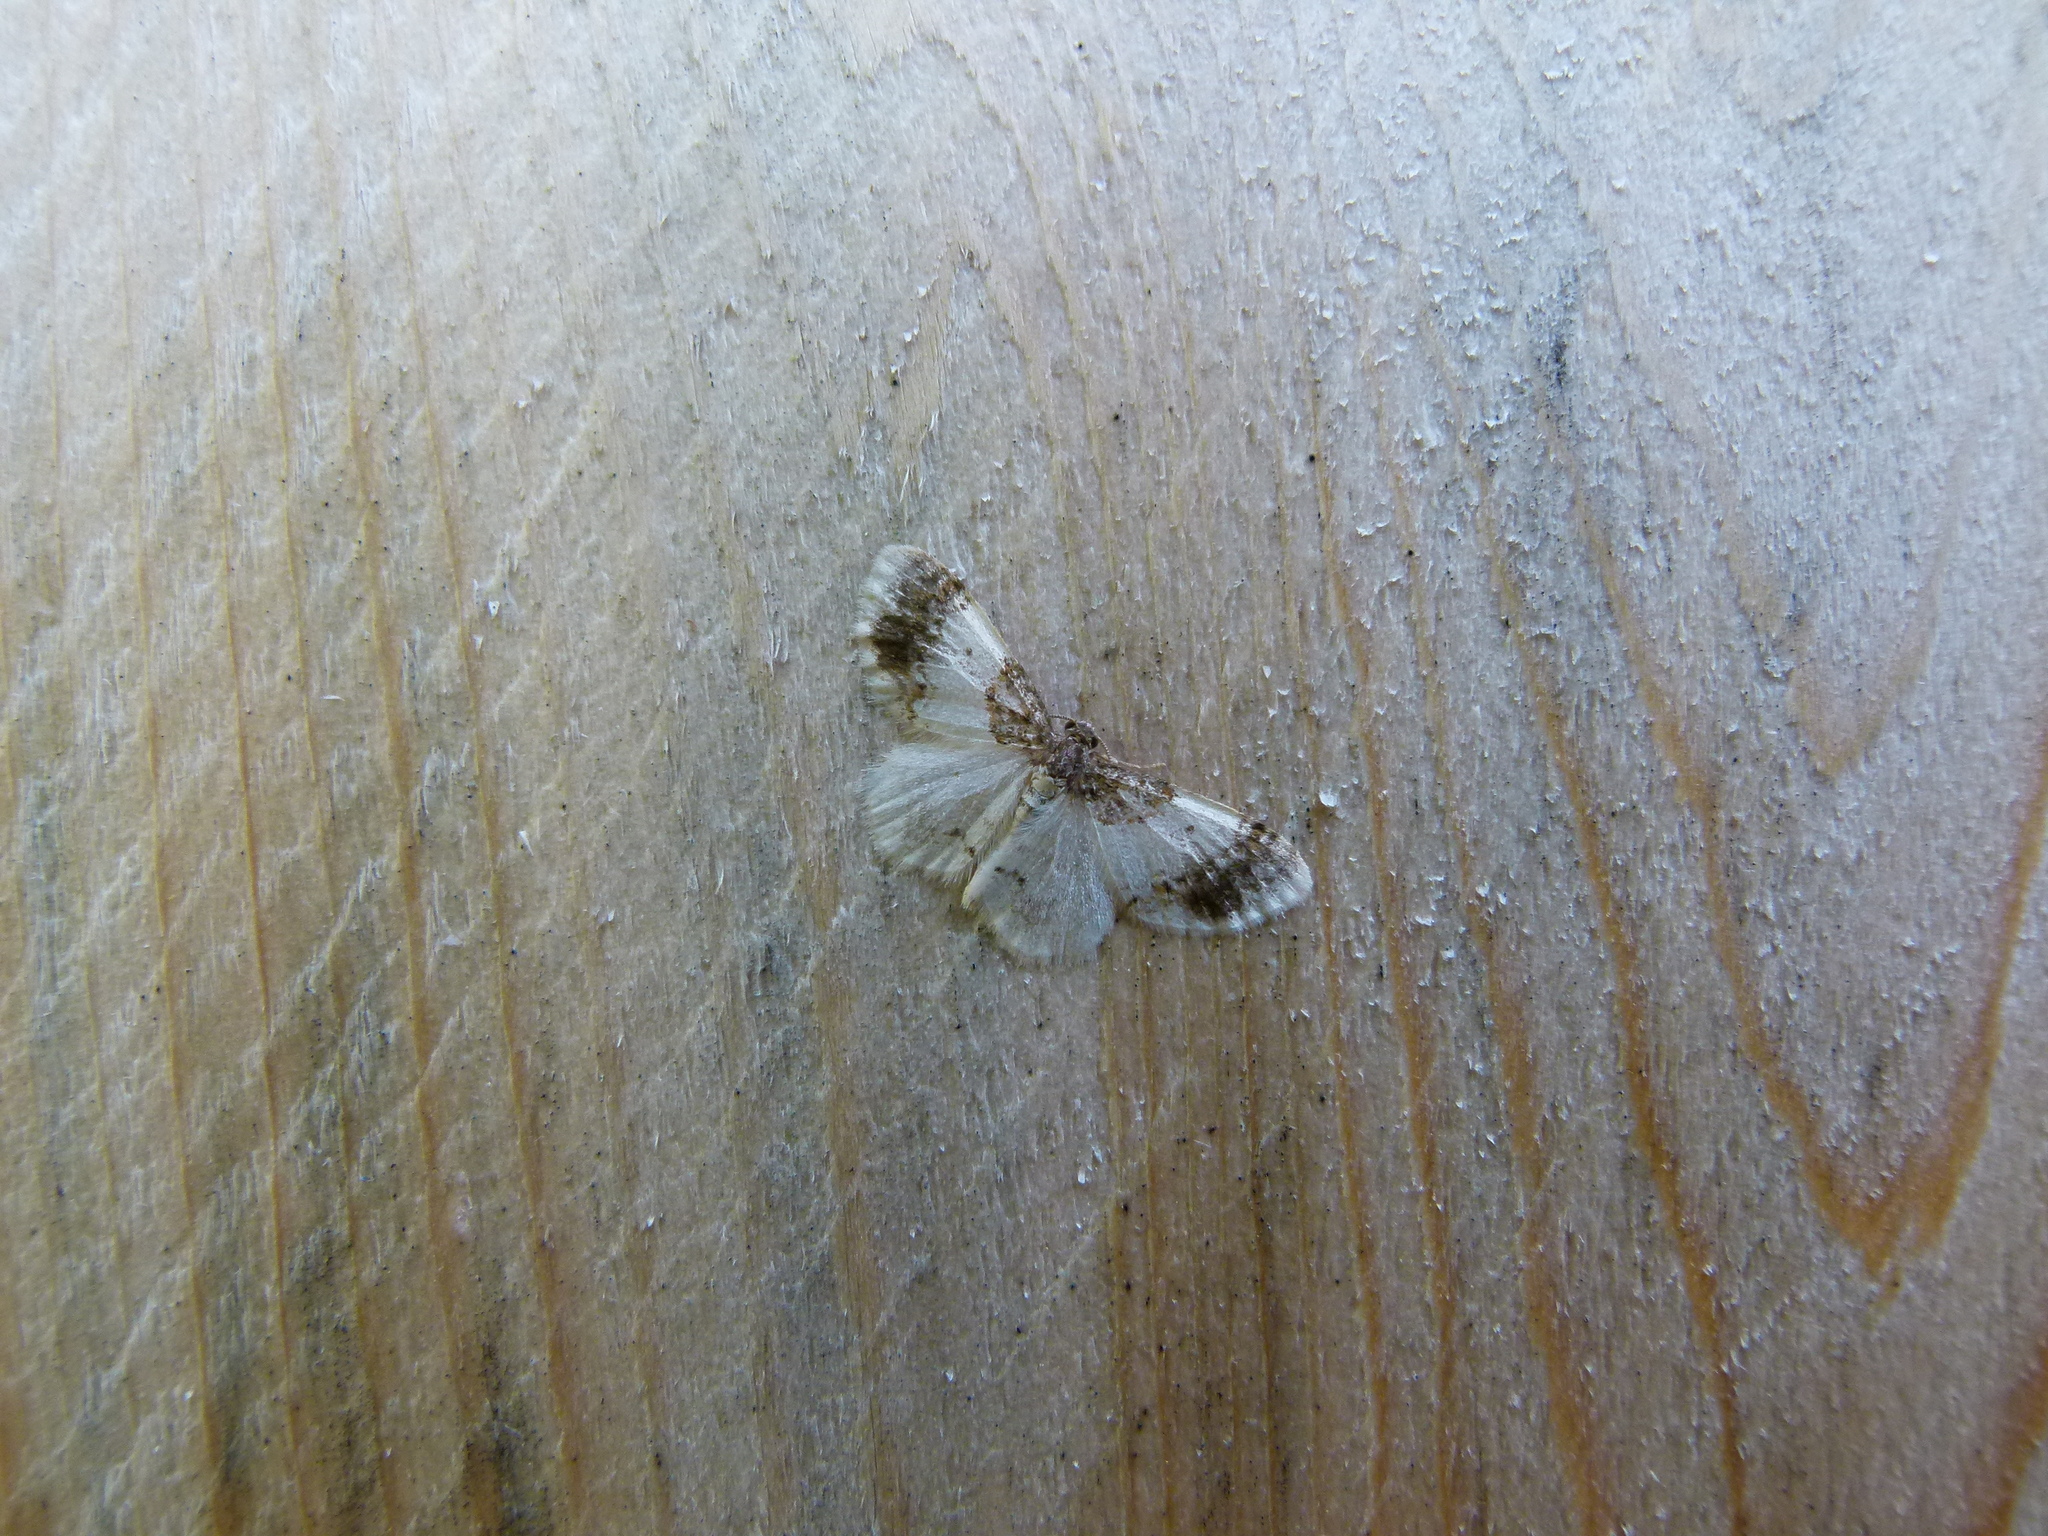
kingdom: Animalia
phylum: Arthropoda
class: Insecta
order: Lepidoptera
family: Geometridae
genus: Hydrelia
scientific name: Hydrelia condensata
